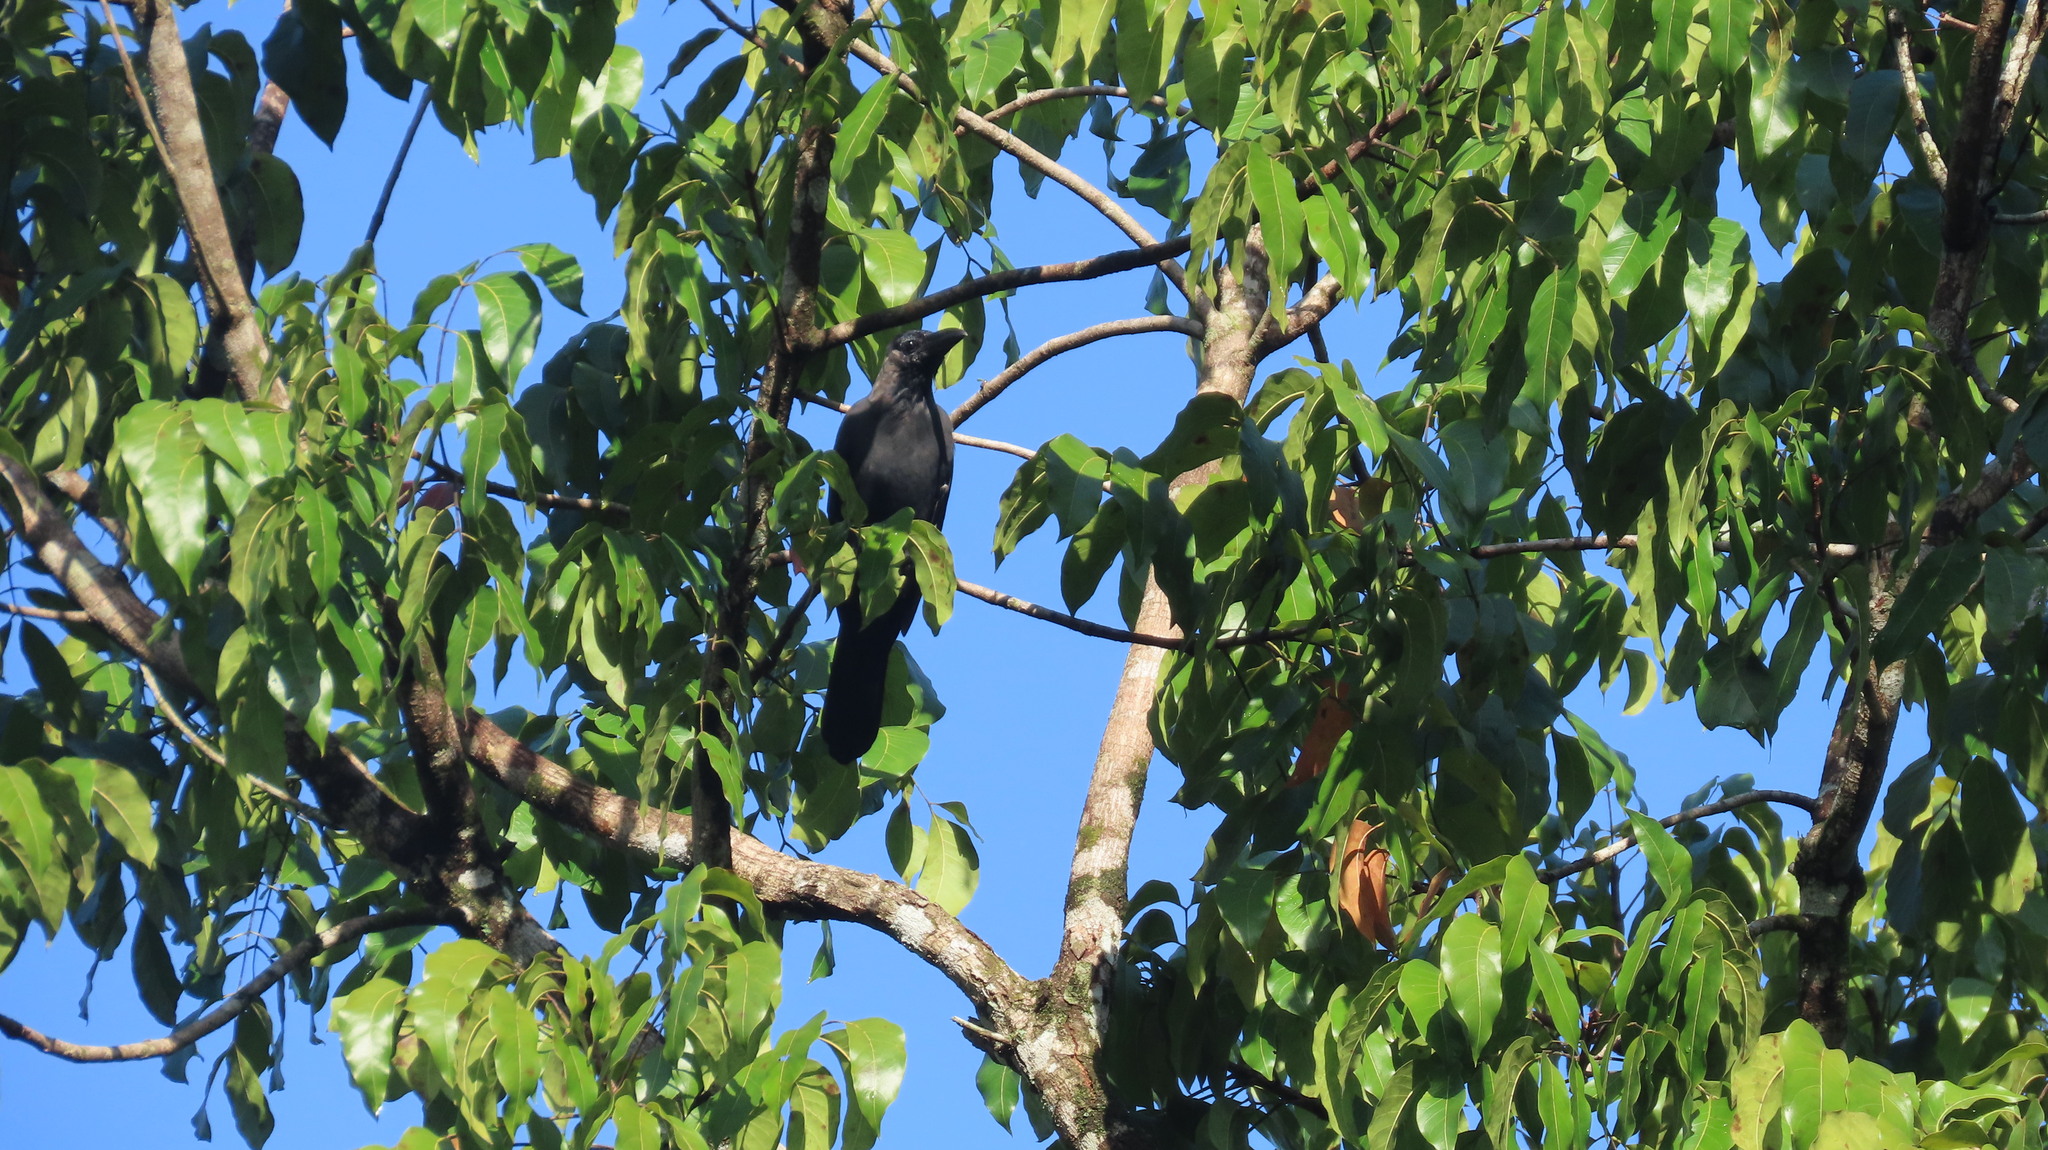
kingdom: Animalia
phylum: Chordata
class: Aves
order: Passeriformes
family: Corvidae
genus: Corvus
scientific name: Corvus splendens
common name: House crow
